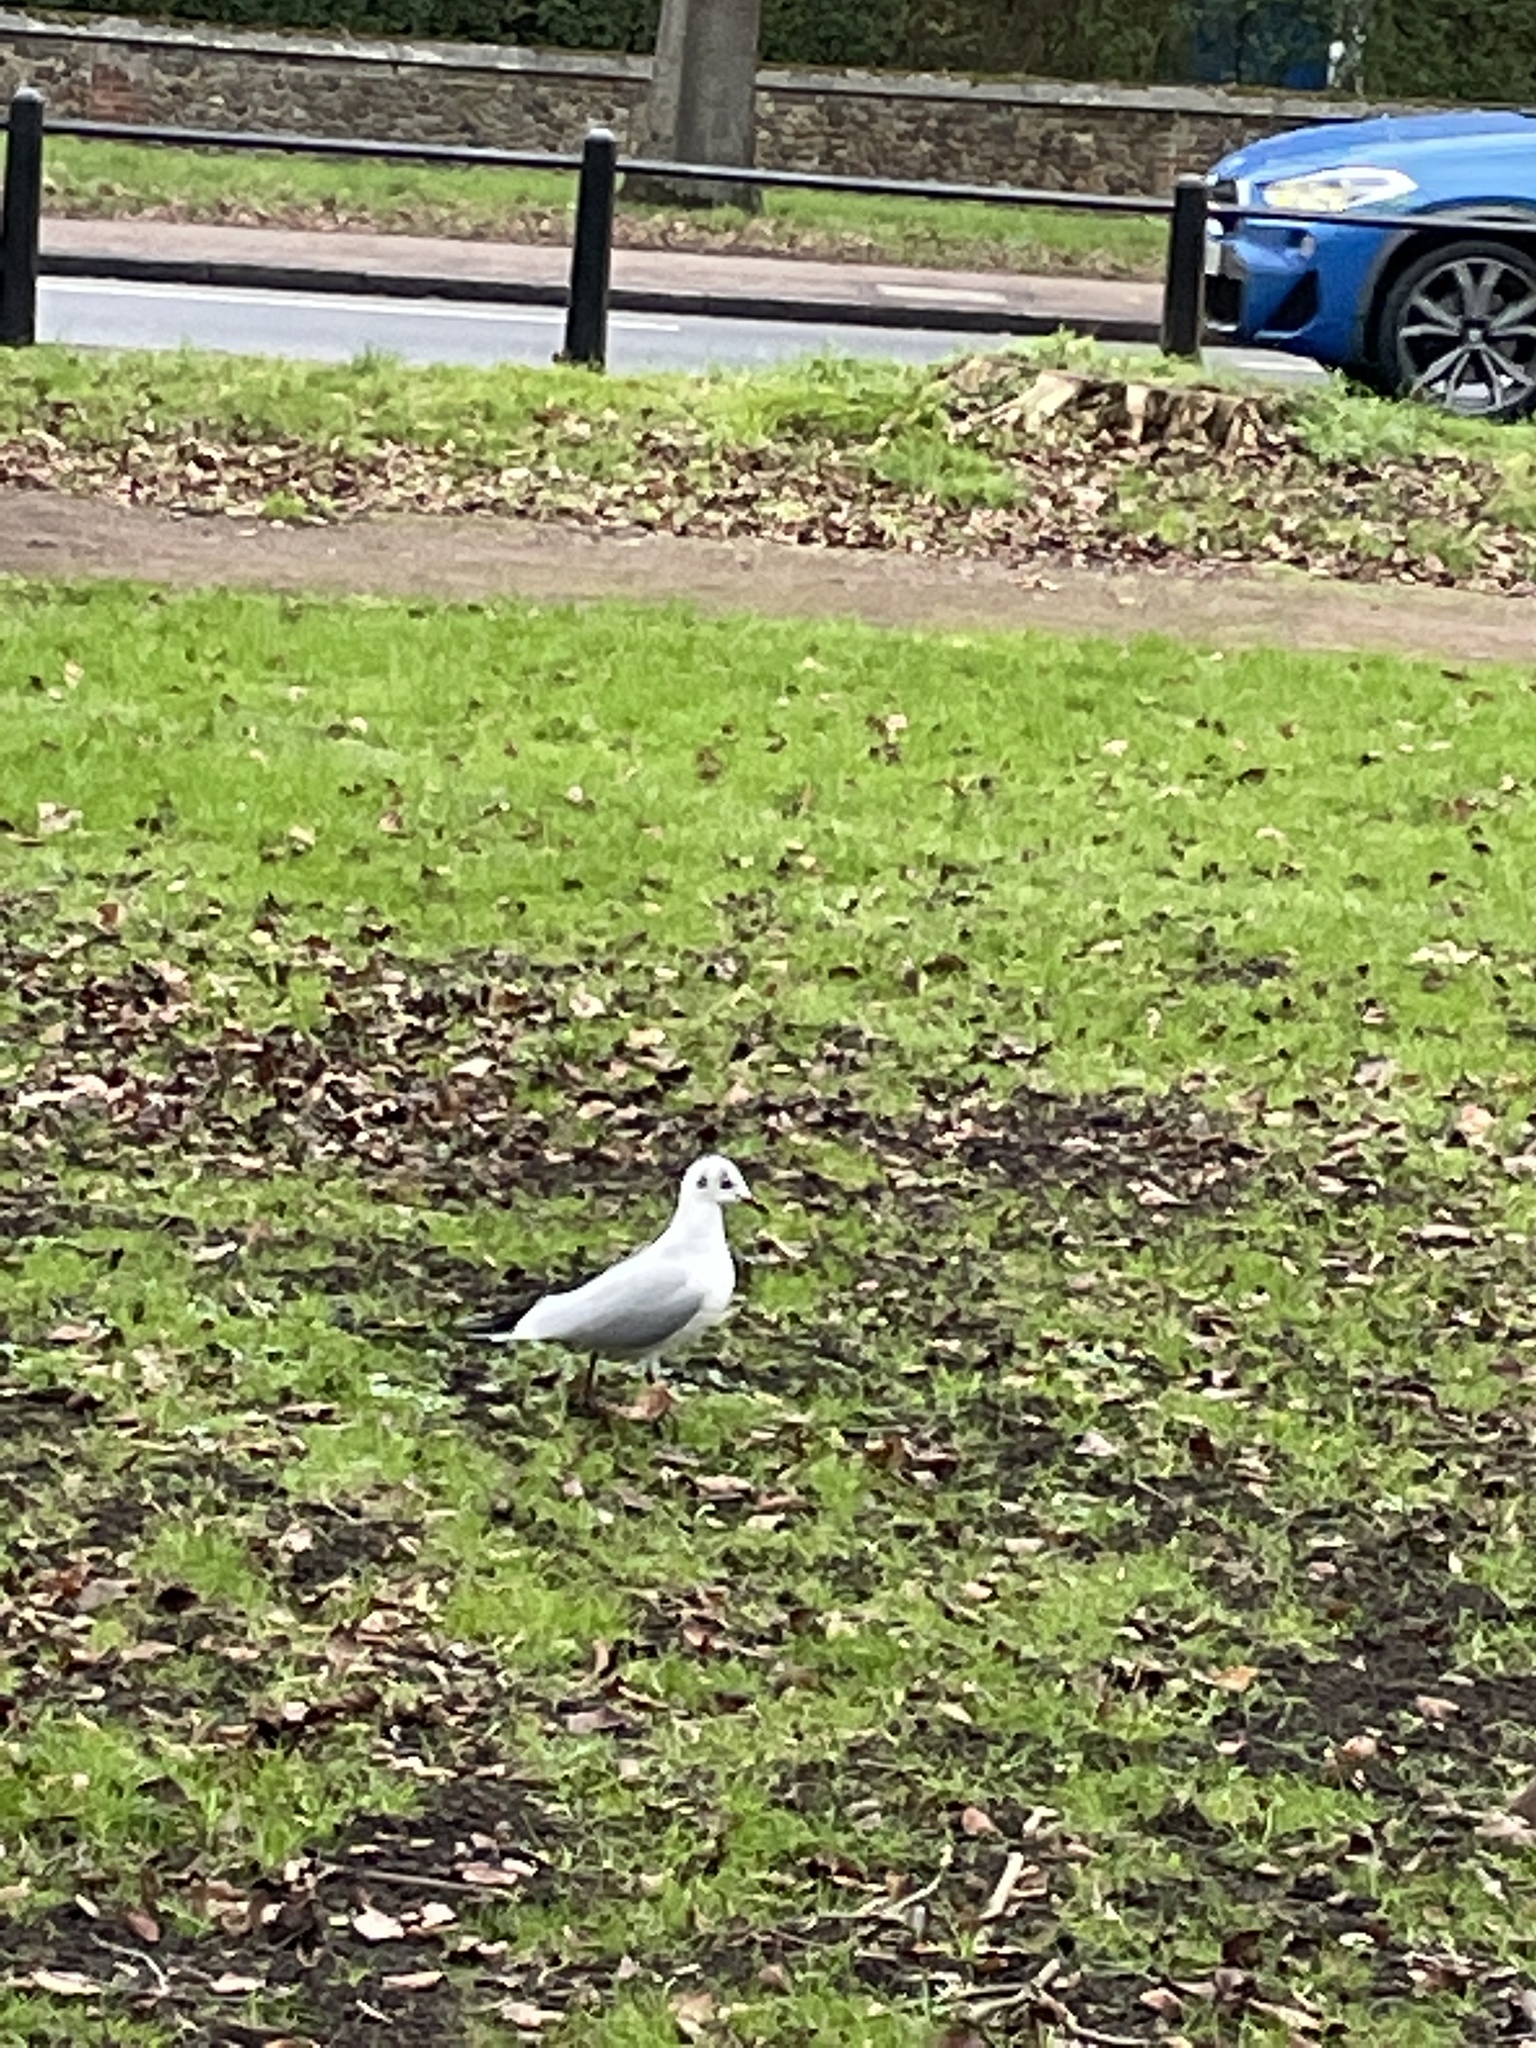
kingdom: Animalia
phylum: Chordata
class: Aves
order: Charadriiformes
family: Laridae
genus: Chroicocephalus
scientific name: Chroicocephalus ridibundus
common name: Black-headed gull
